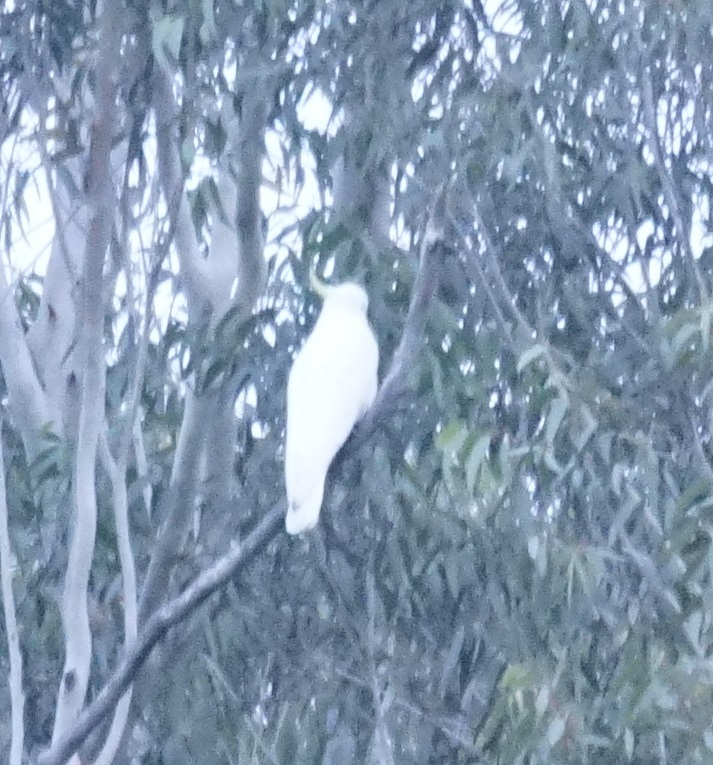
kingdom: Animalia
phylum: Chordata
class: Aves
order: Psittaciformes
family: Psittacidae
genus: Cacatua
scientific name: Cacatua galerita
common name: Sulphur-crested cockatoo
